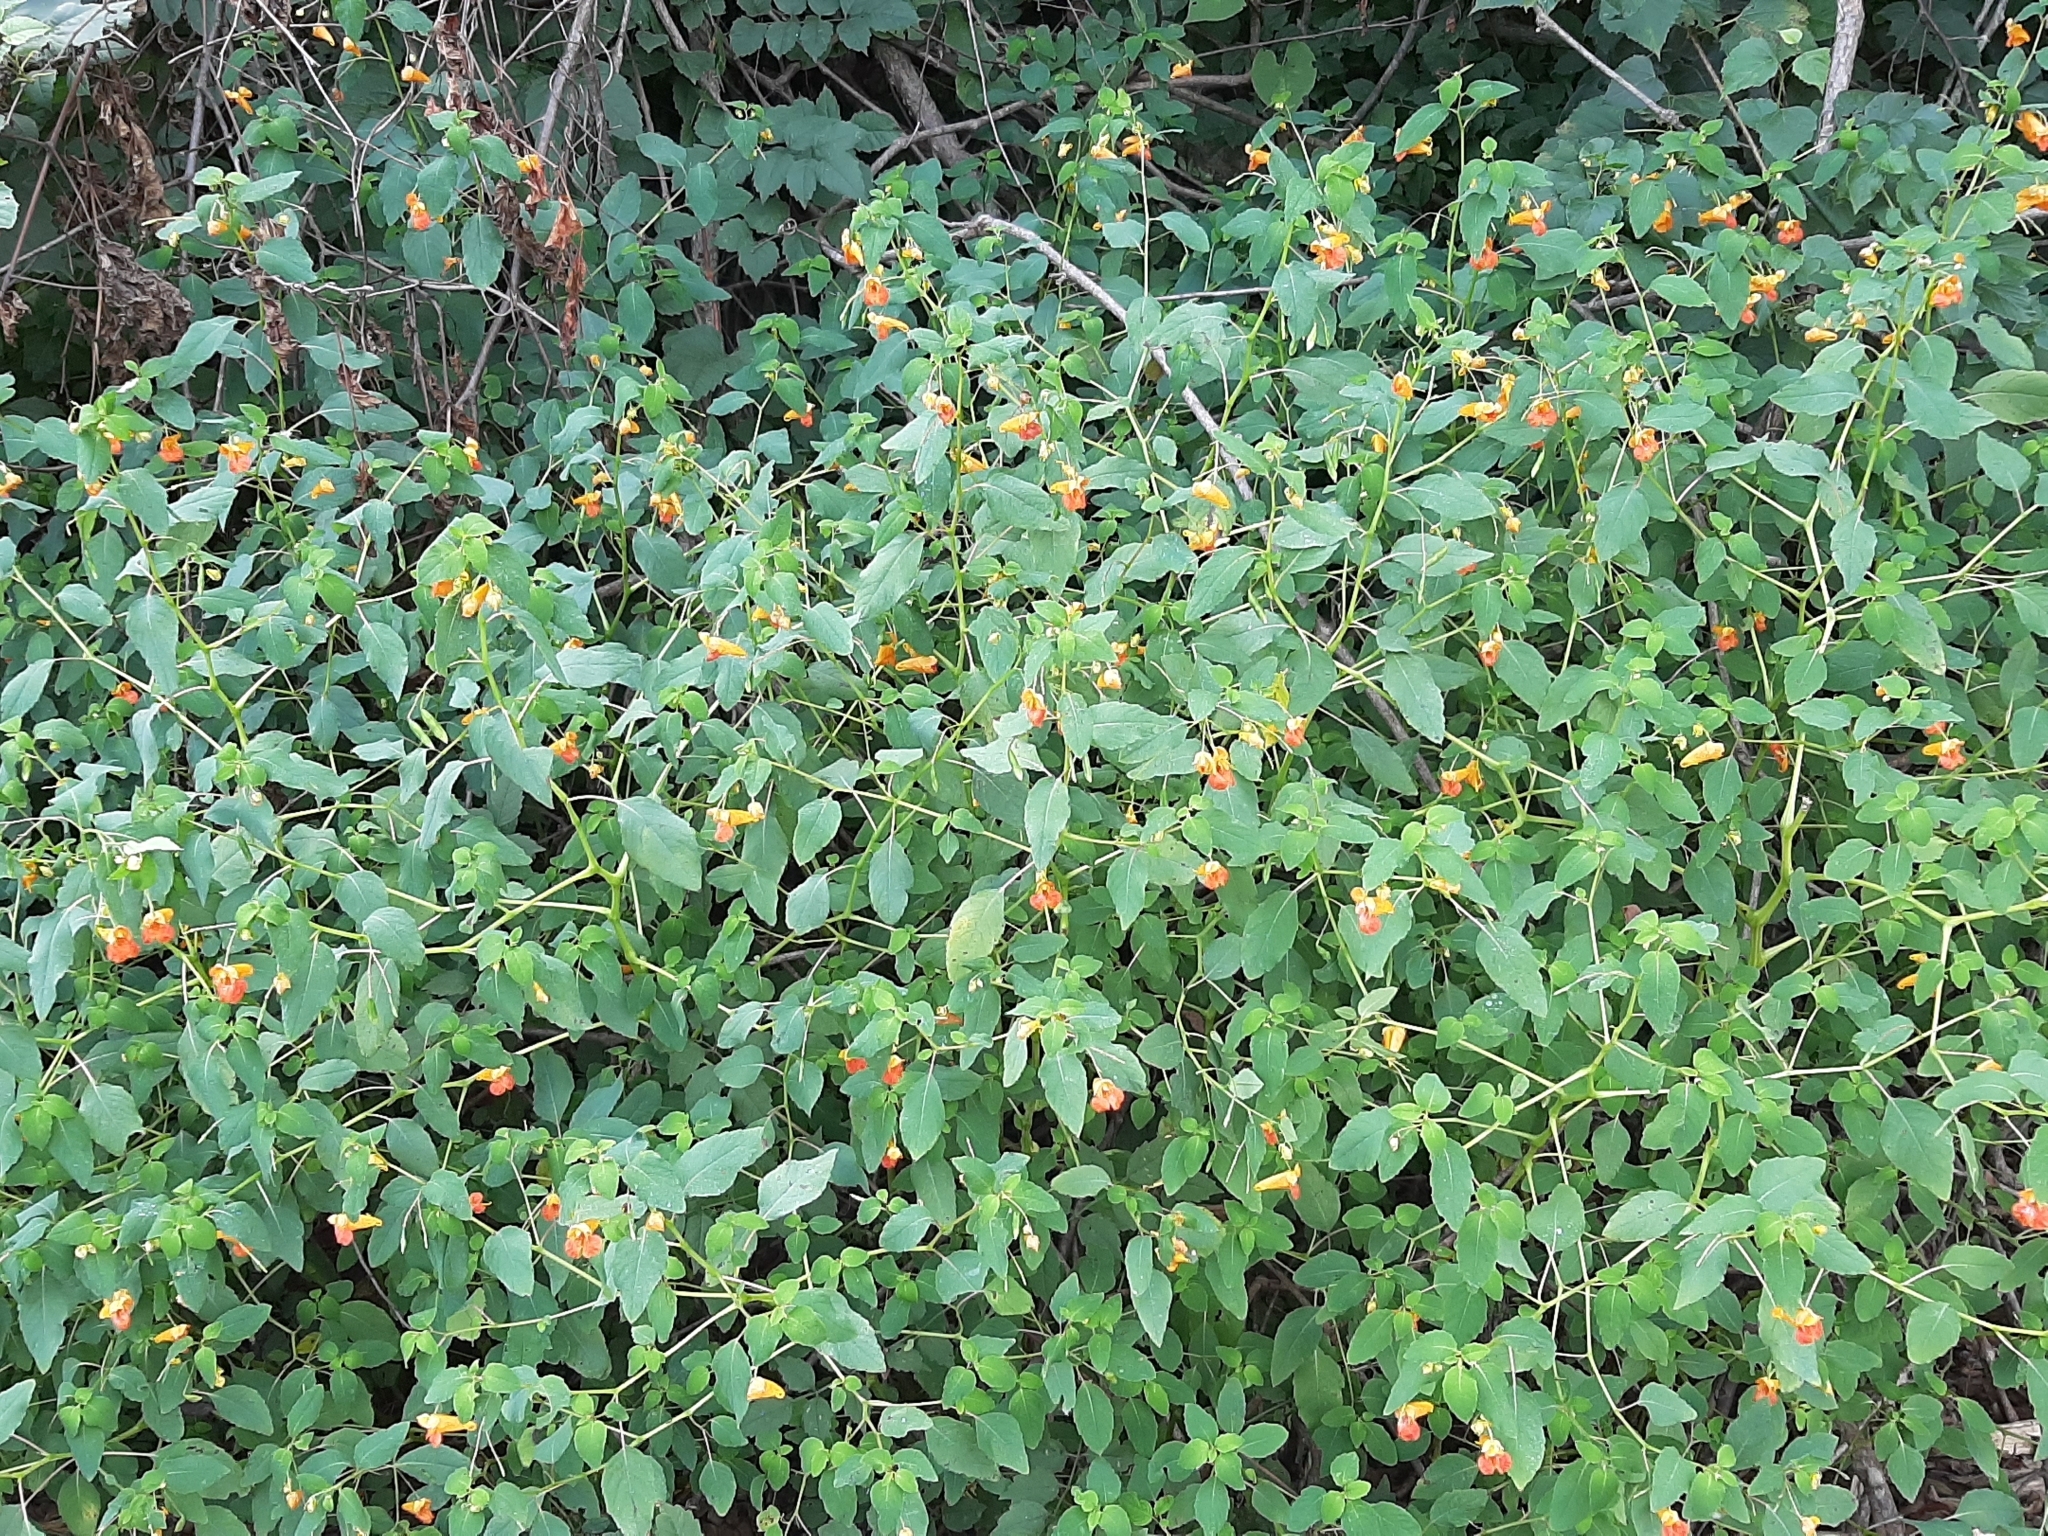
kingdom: Plantae
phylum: Tracheophyta
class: Magnoliopsida
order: Ericales
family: Balsaminaceae
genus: Impatiens
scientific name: Impatiens capensis
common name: Orange balsam
